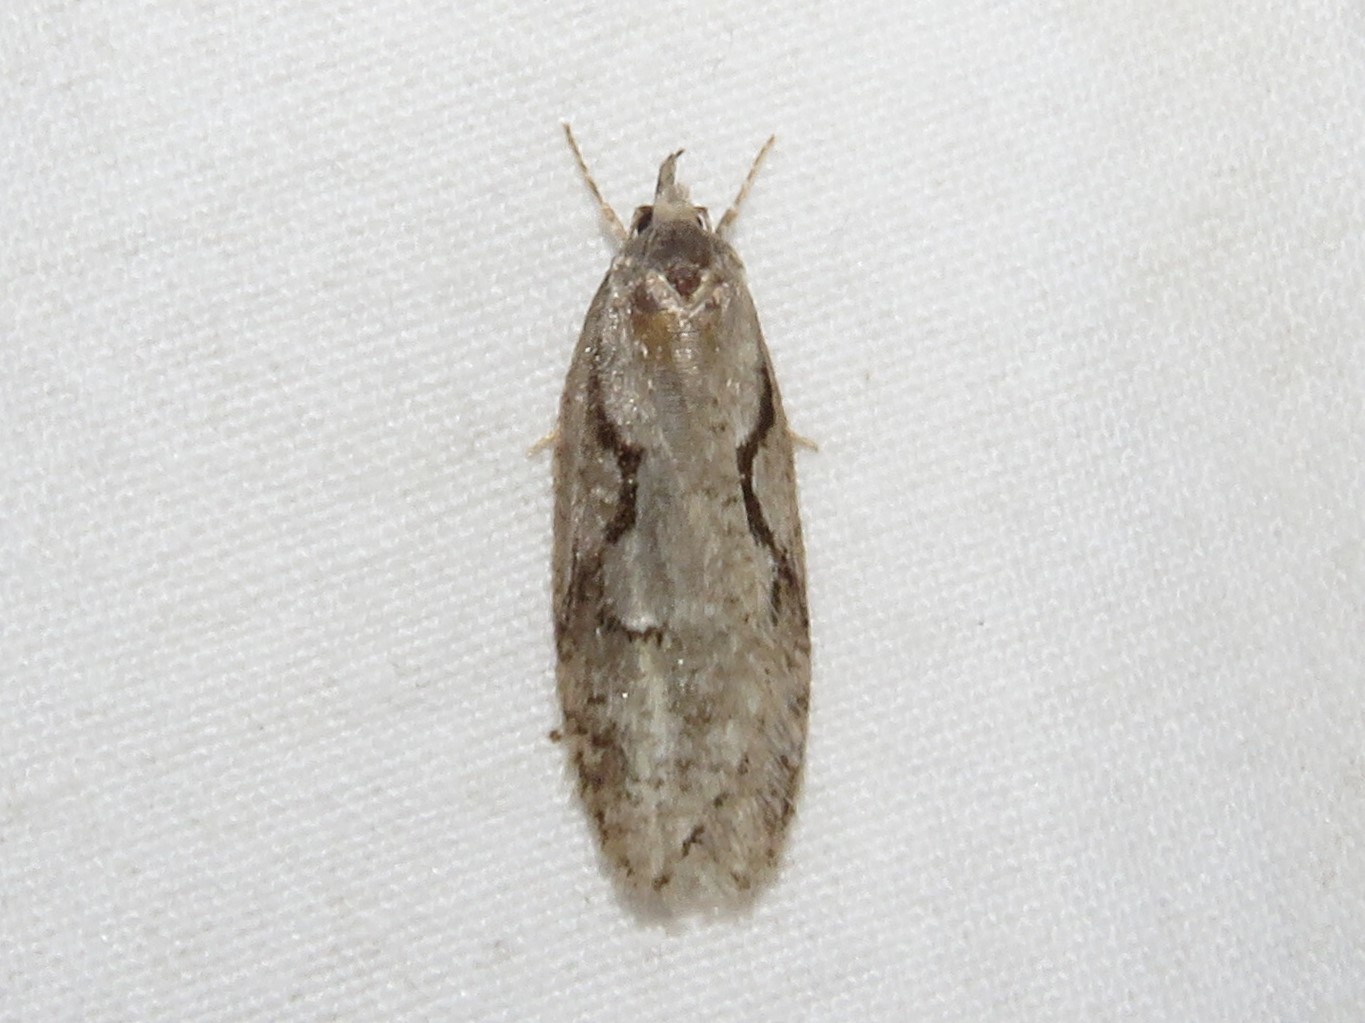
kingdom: Animalia
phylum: Arthropoda
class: Insecta
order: Lepidoptera
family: Depressariidae
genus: Semioscopis
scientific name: Semioscopis packardella
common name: Packard's concealer moth
